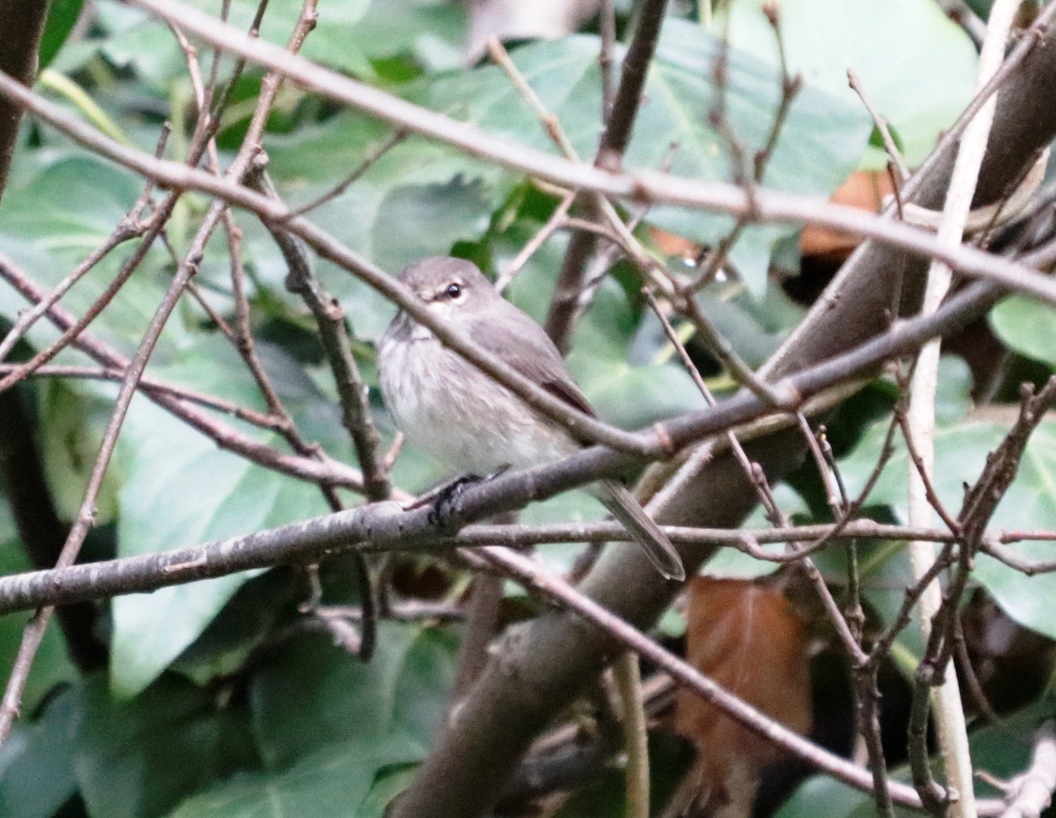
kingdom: Animalia
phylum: Chordata
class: Aves
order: Passeriformes
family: Muscicapidae
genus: Muscicapa
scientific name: Muscicapa adusta
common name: African dusky flycatcher
